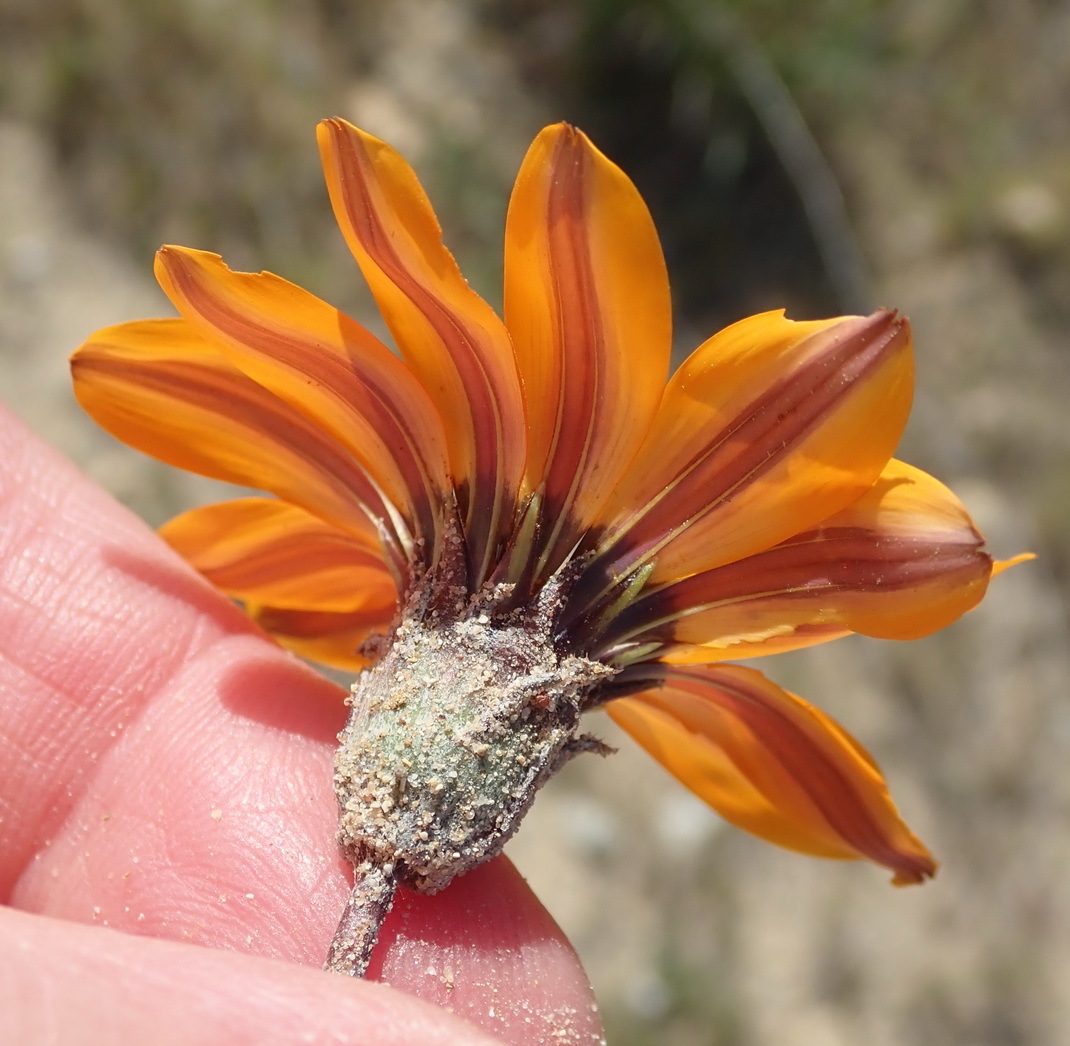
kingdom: Plantae
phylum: Tracheophyta
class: Magnoliopsida
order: Asterales
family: Asteraceae
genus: Gazania
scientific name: Gazania pectinata
